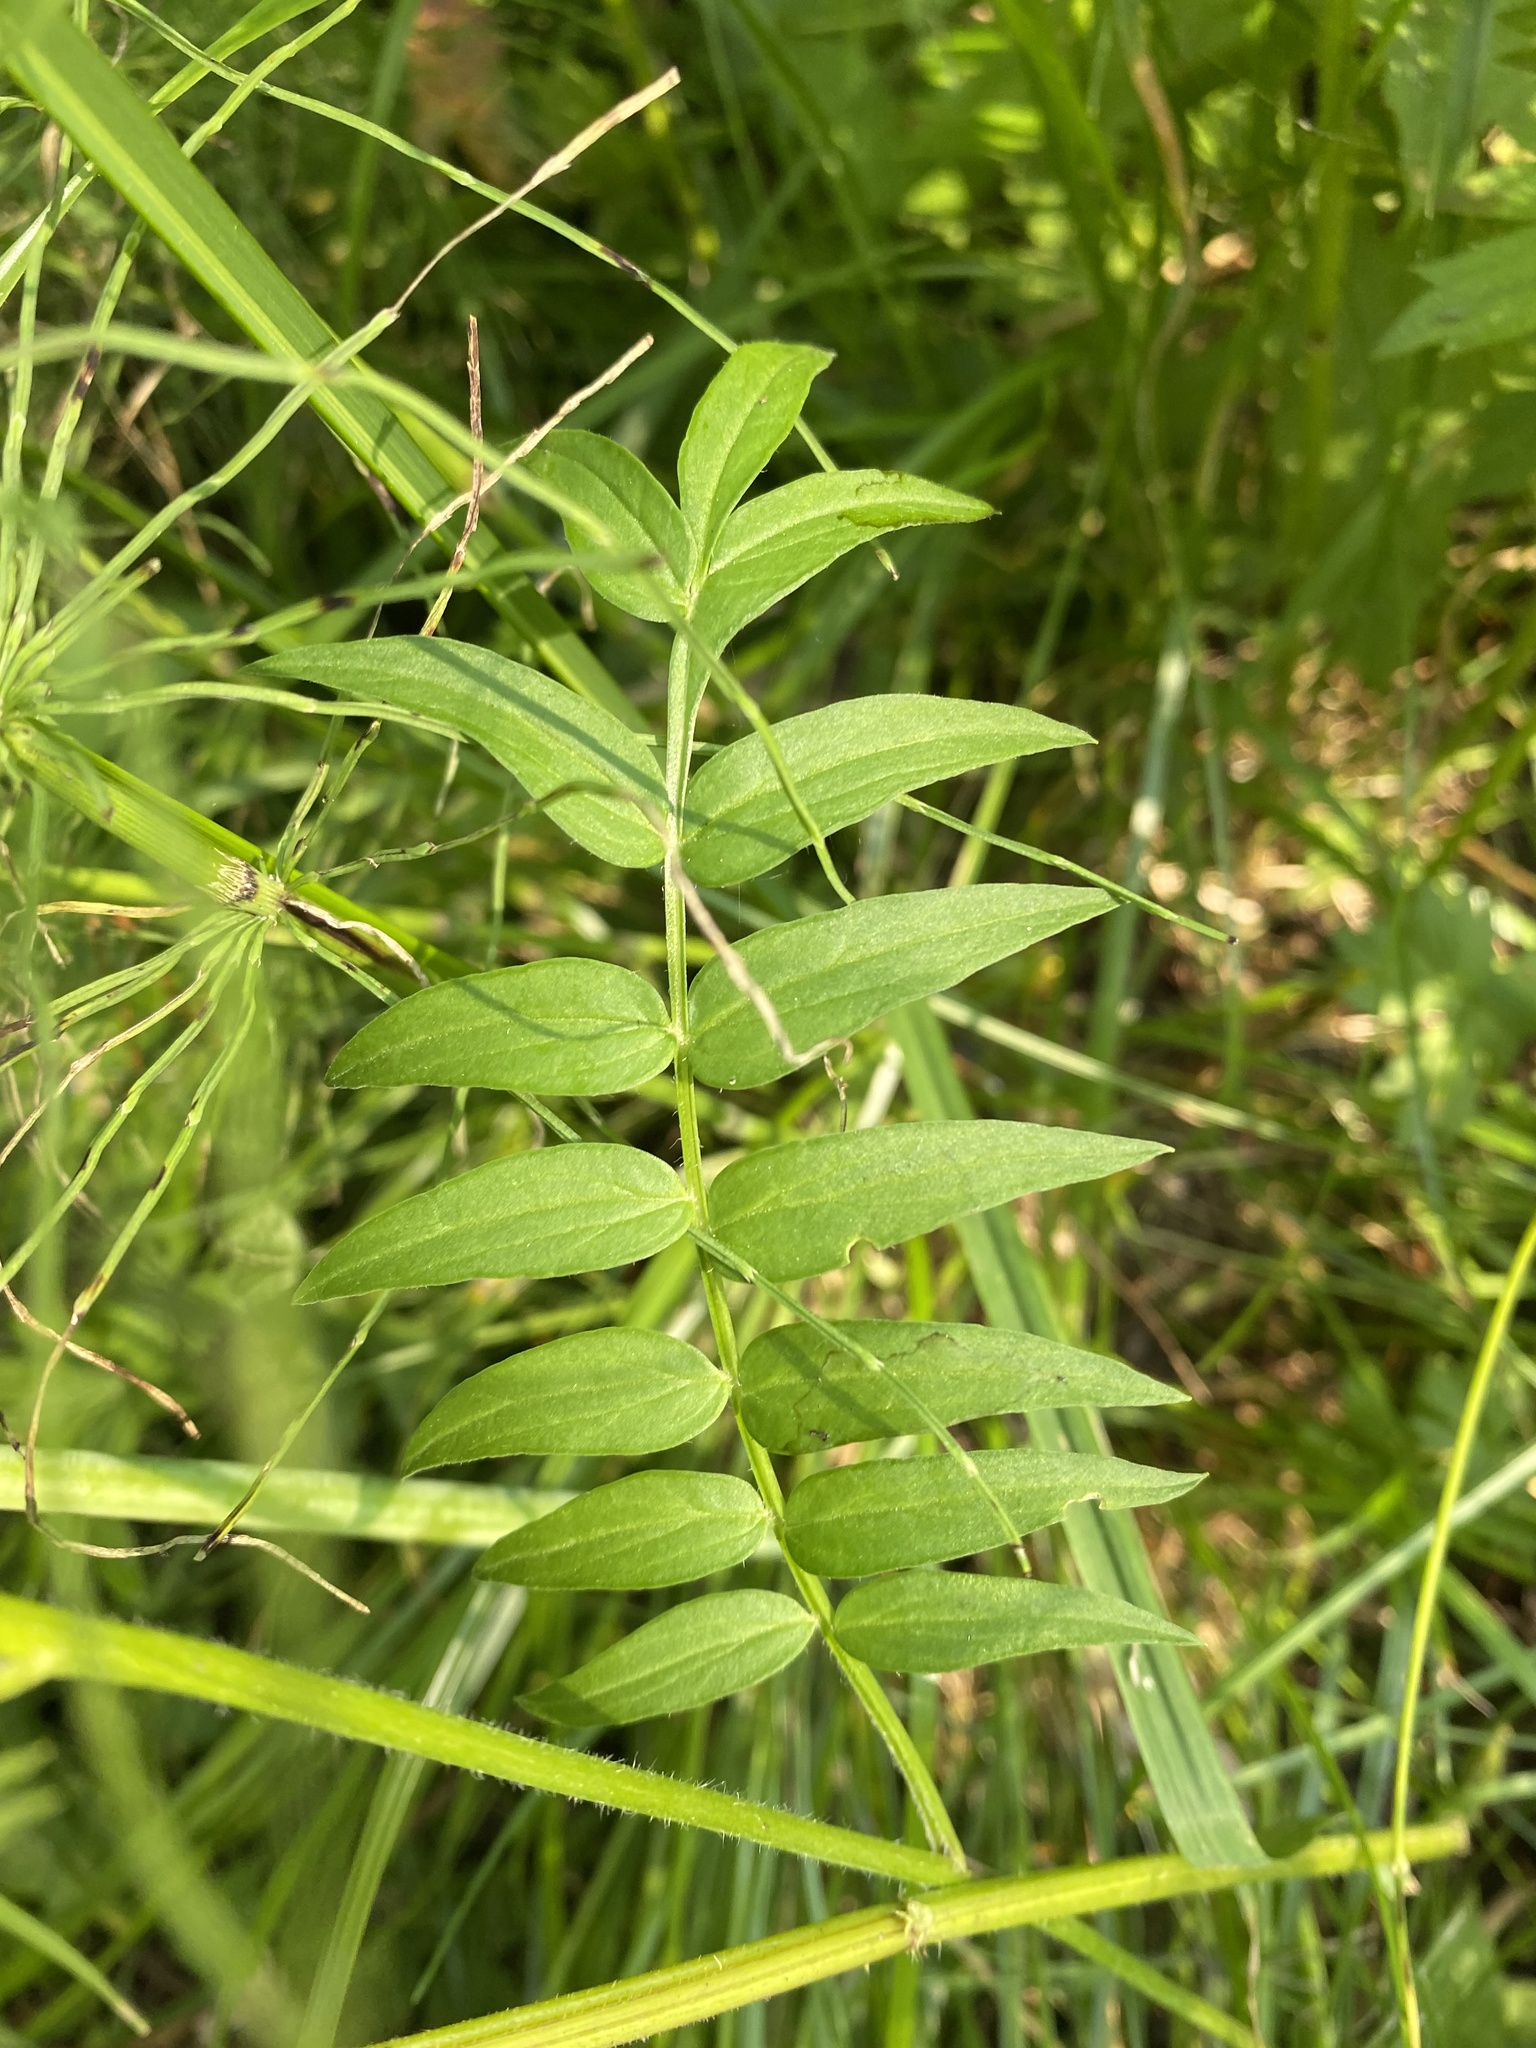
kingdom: Plantae
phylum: Tracheophyta
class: Magnoliopsida
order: Ericales
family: Polemoniaceae
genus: Polemonium
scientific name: Polemonium caeruleum
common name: Jacob's-ladder
